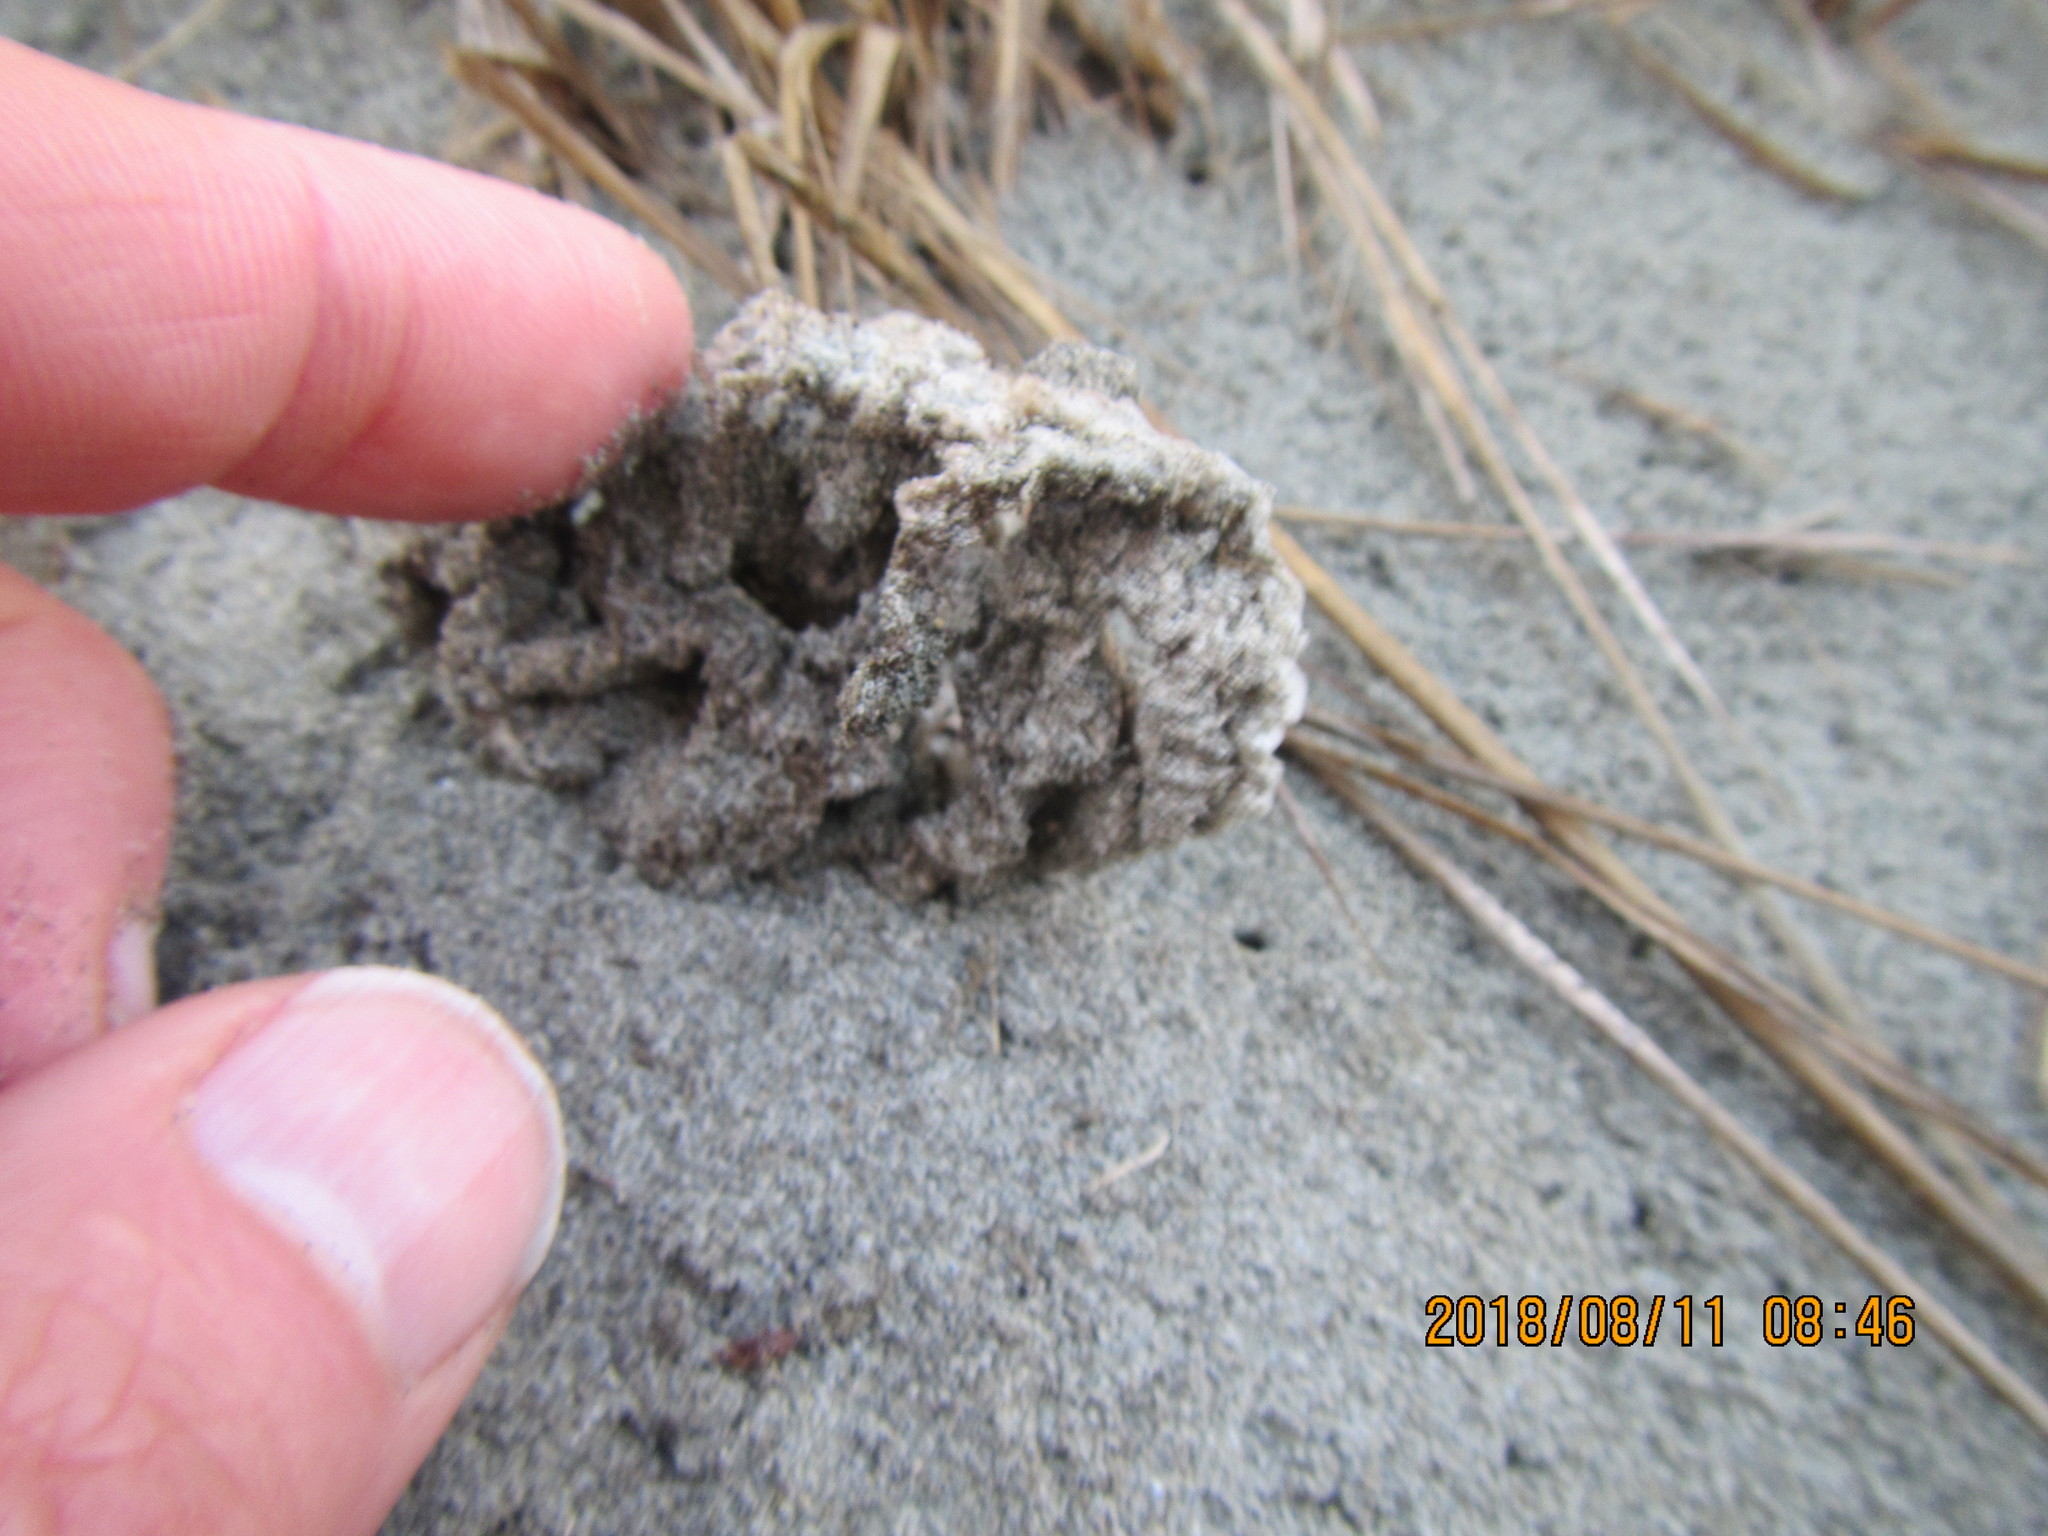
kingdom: Fungi
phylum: Basidiomycota
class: Agaricomycetes
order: Phallales
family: Phallaceae
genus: Ileodictyon
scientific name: Ileodictyon cibarium
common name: Basket fungus
